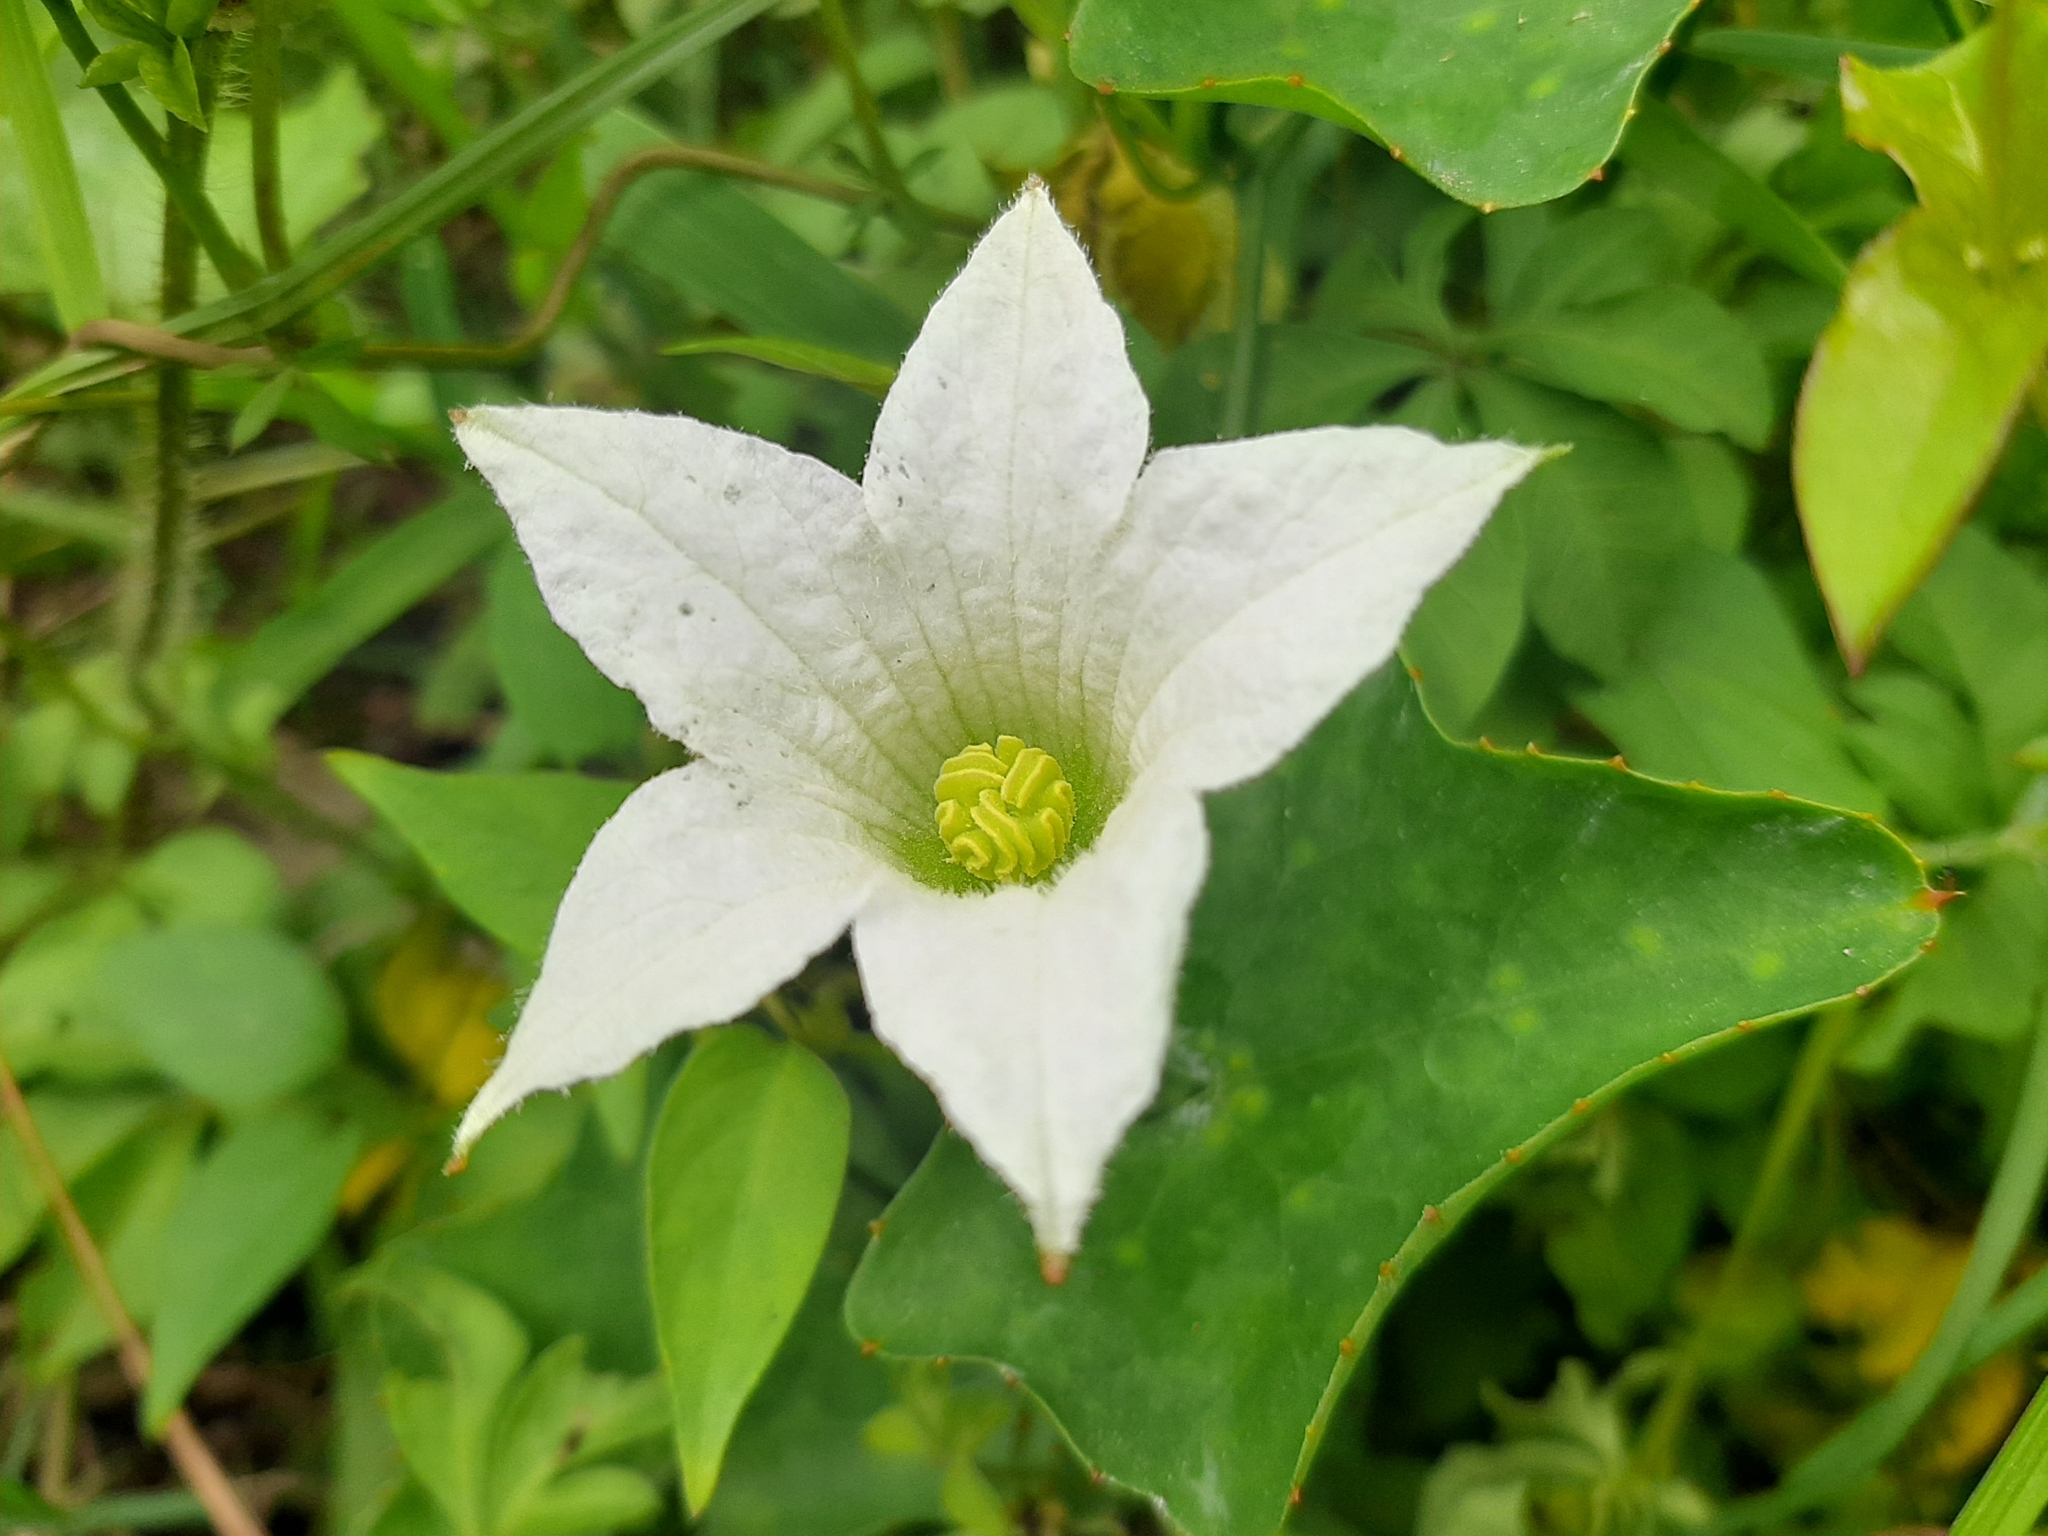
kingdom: Plantae
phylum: Tracheophyta
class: Magnoliopsida
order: Cucurbitales
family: Cucurbitaceae
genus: Coccinia
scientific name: Coccinia grandis
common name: Ivy gourd
